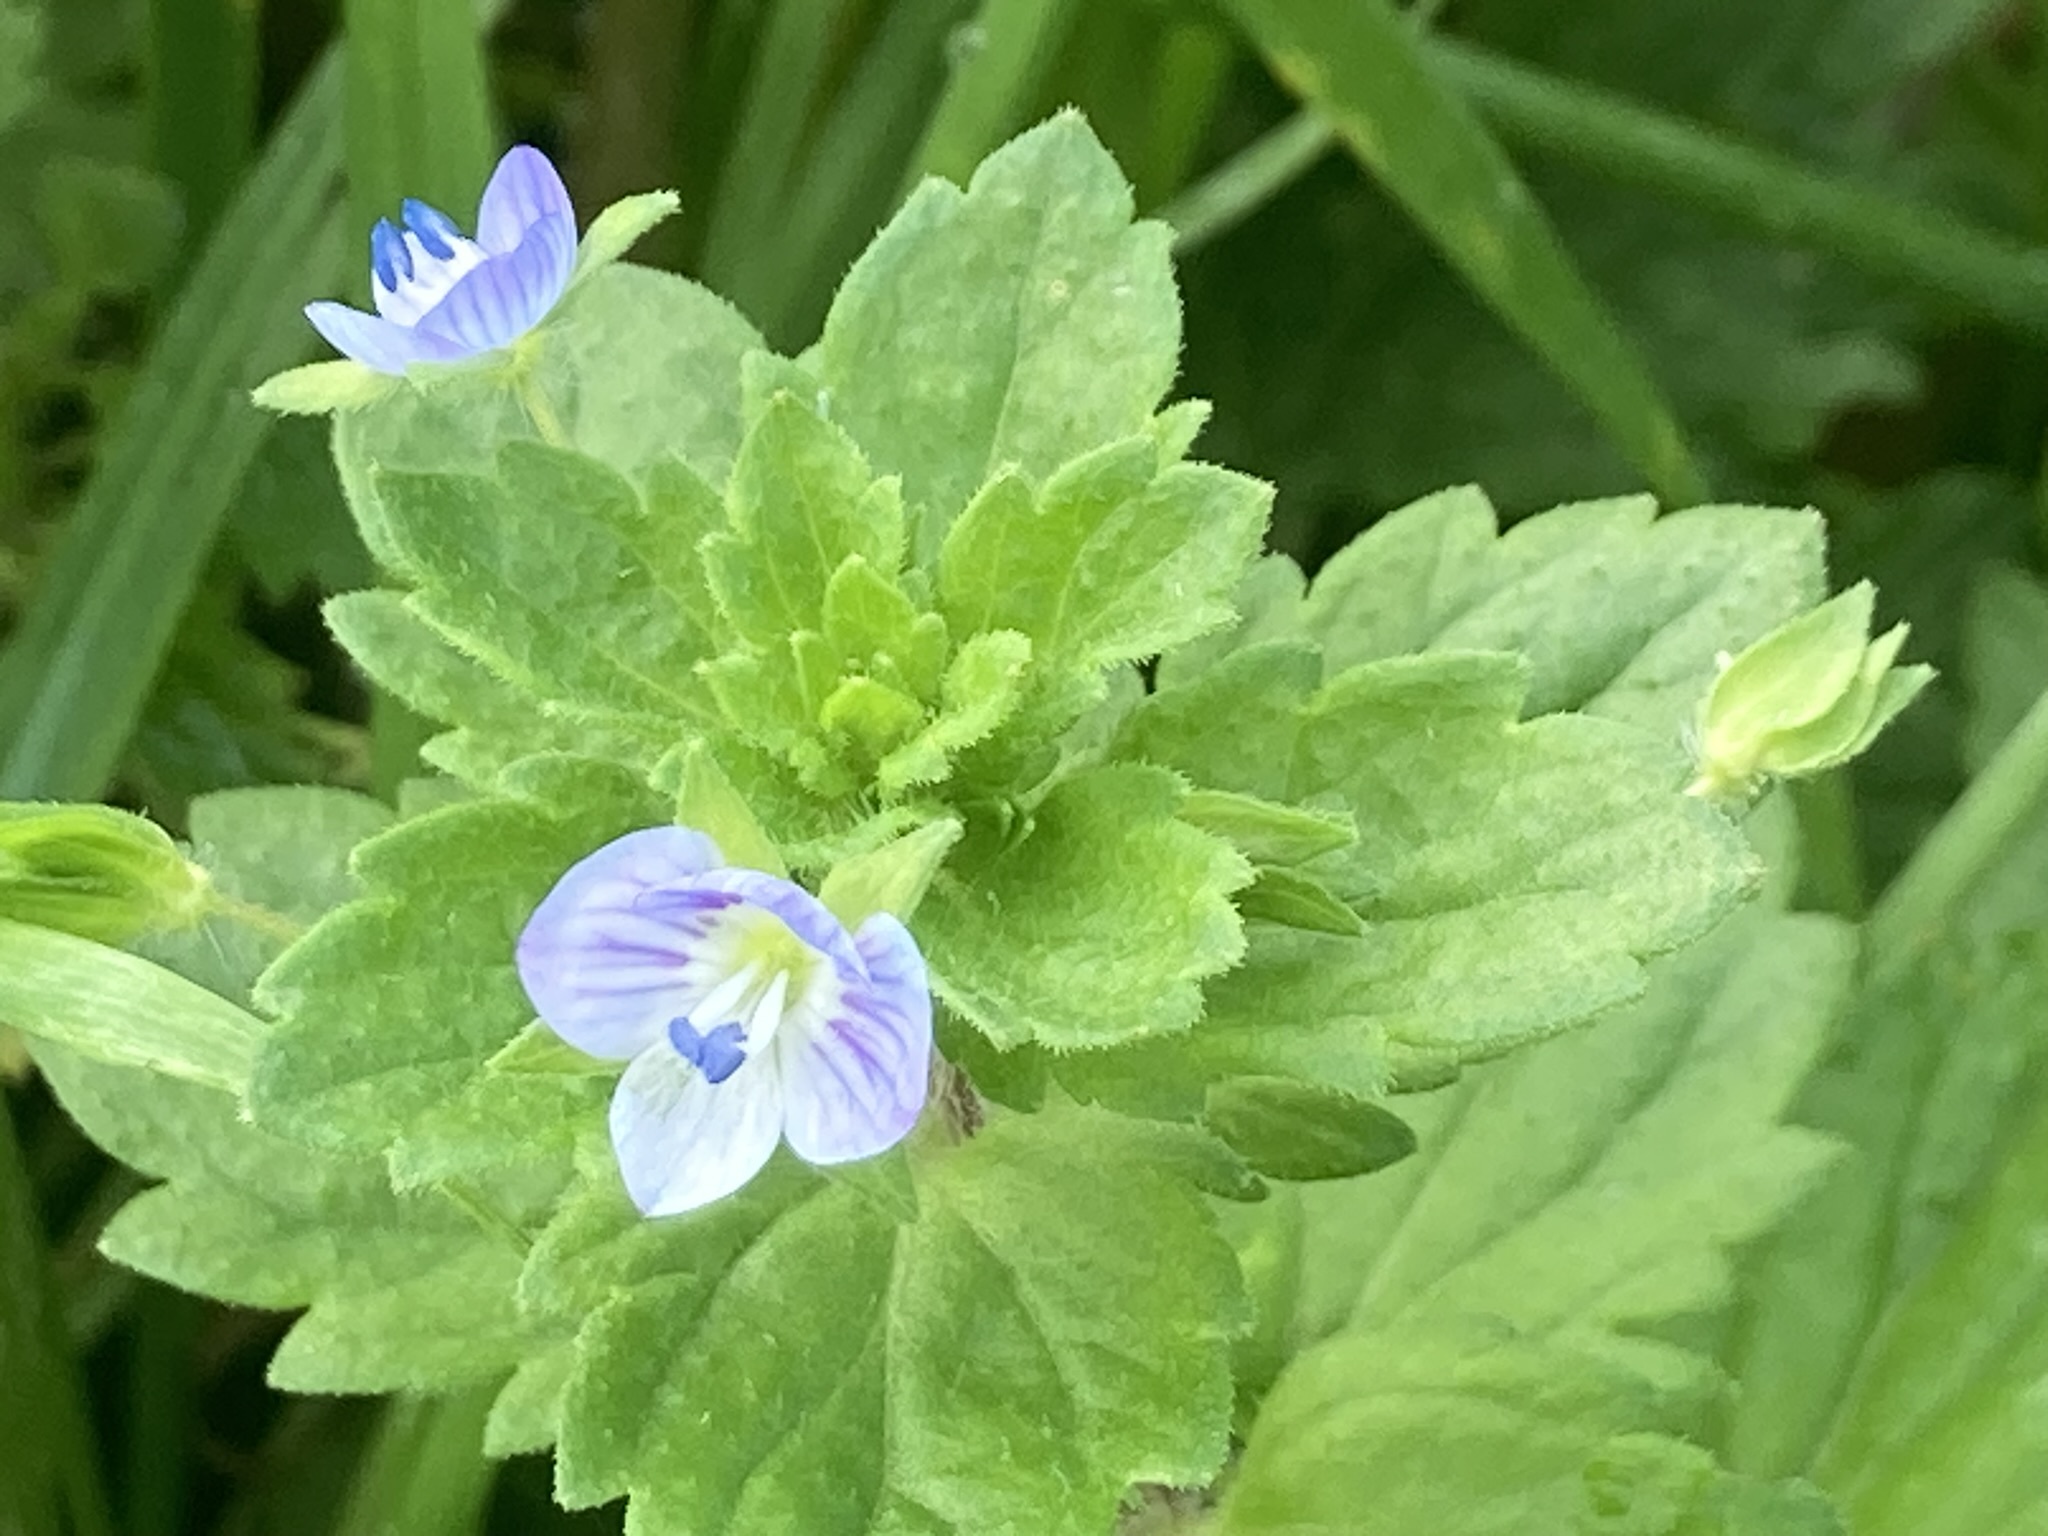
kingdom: Plantae
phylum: Tracheophyta
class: Magnoliopsida
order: Lamiales
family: Plantaginaceae
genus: Veronica
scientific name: Veronica persica
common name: Common field-speedwell
